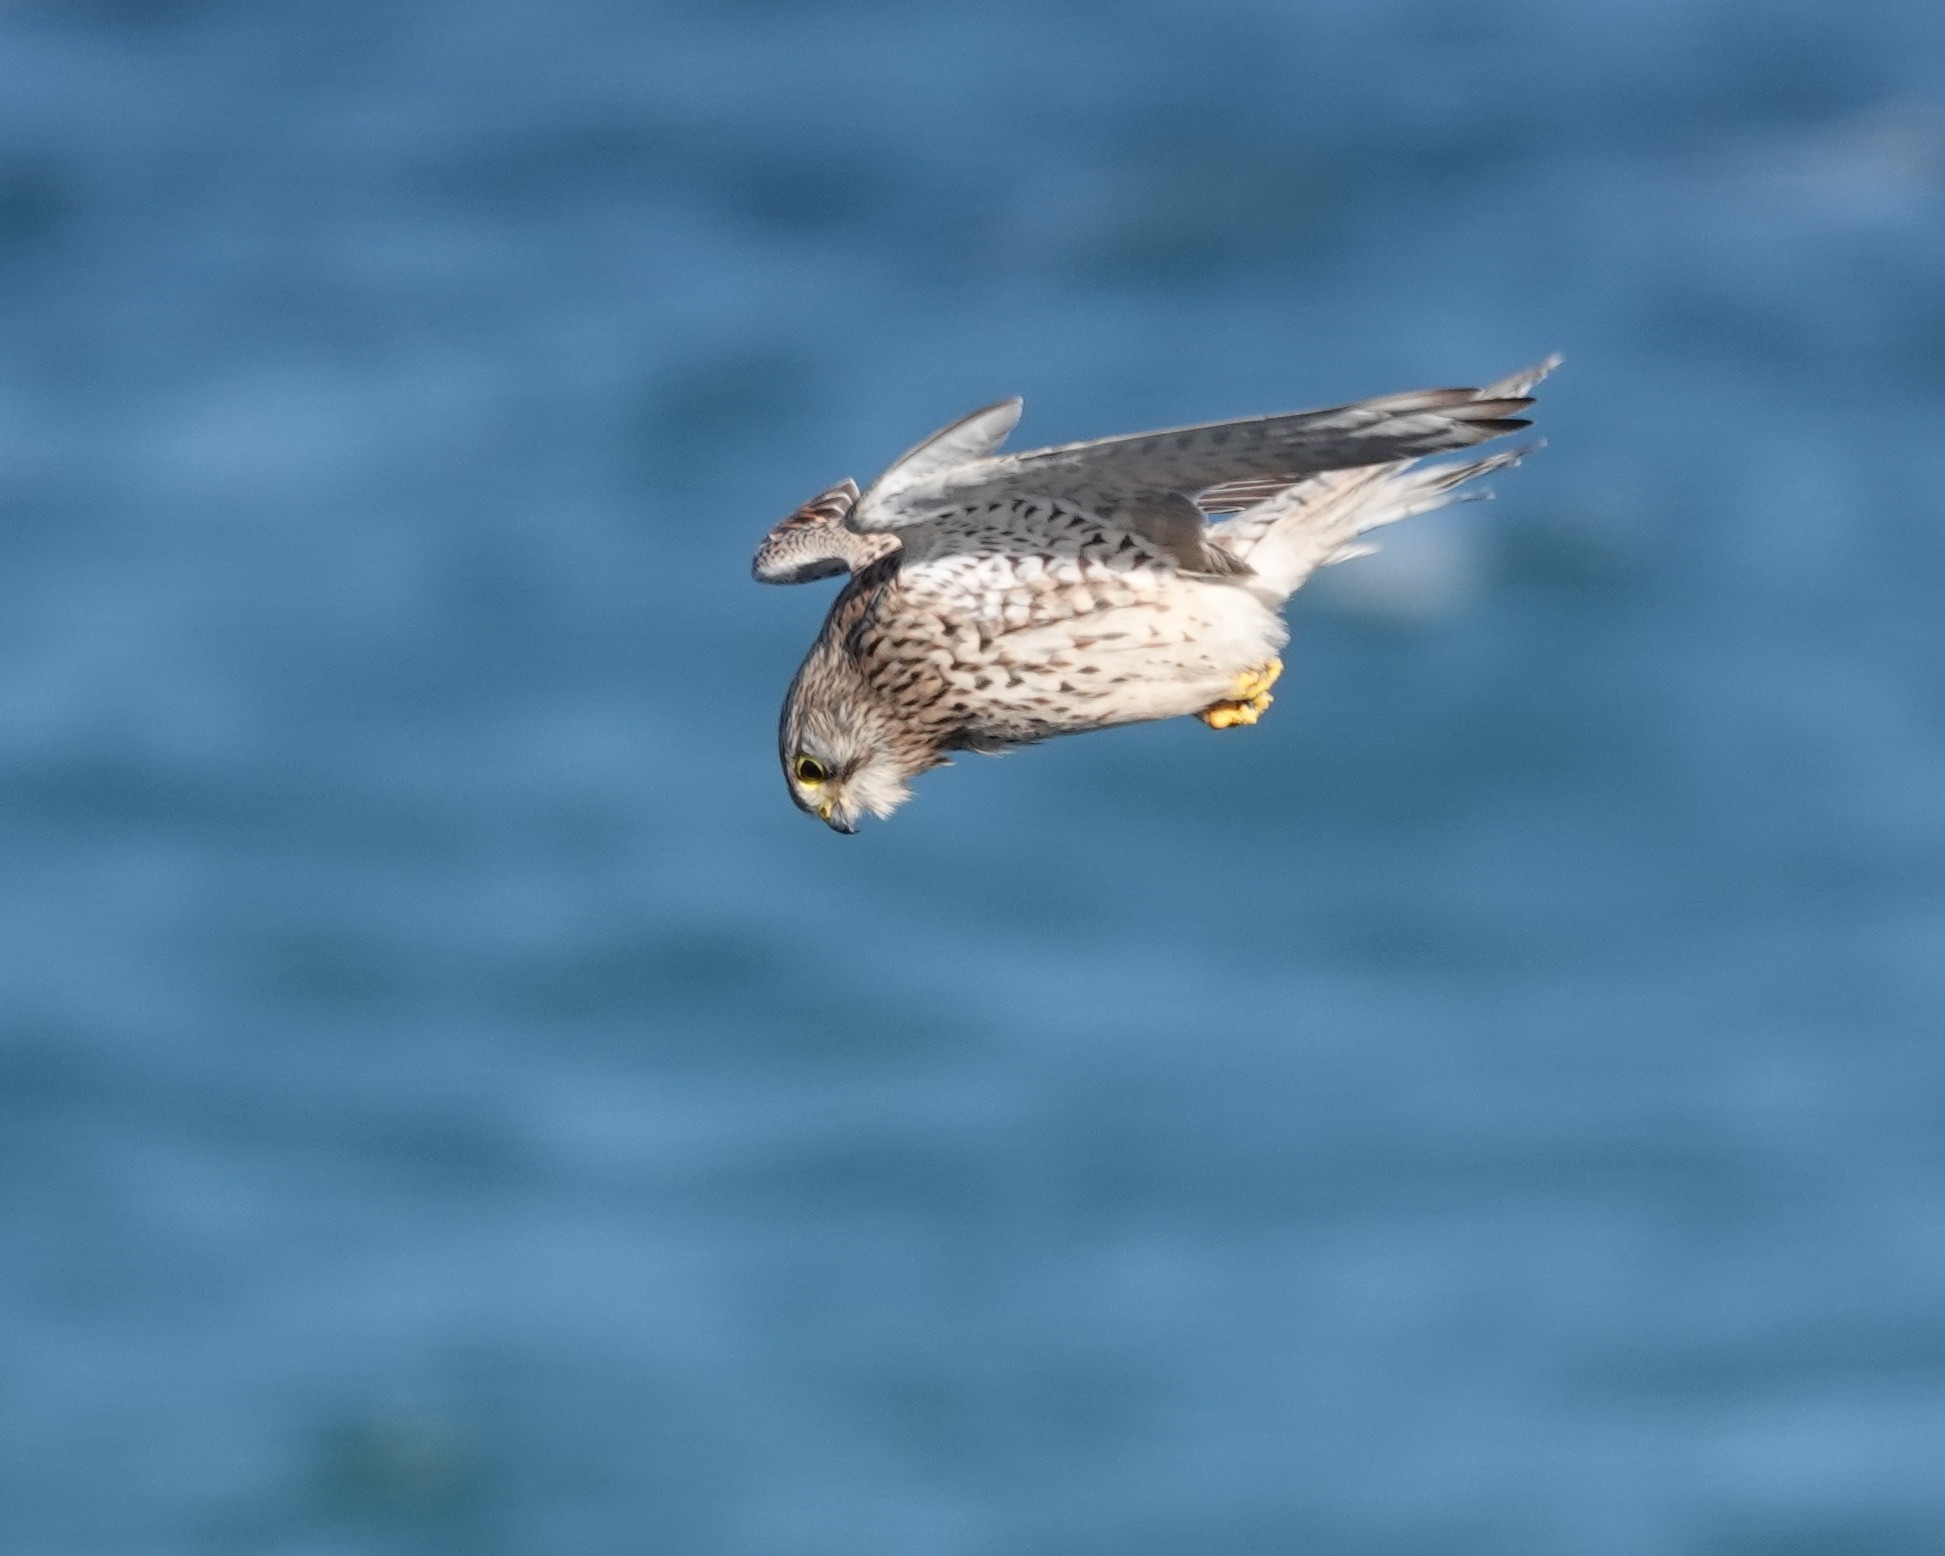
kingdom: Animalia
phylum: Chordata
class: Aves
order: Falconiformes
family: Falconidae
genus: Falco
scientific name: Falco tinnunculus
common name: Common kestrel
